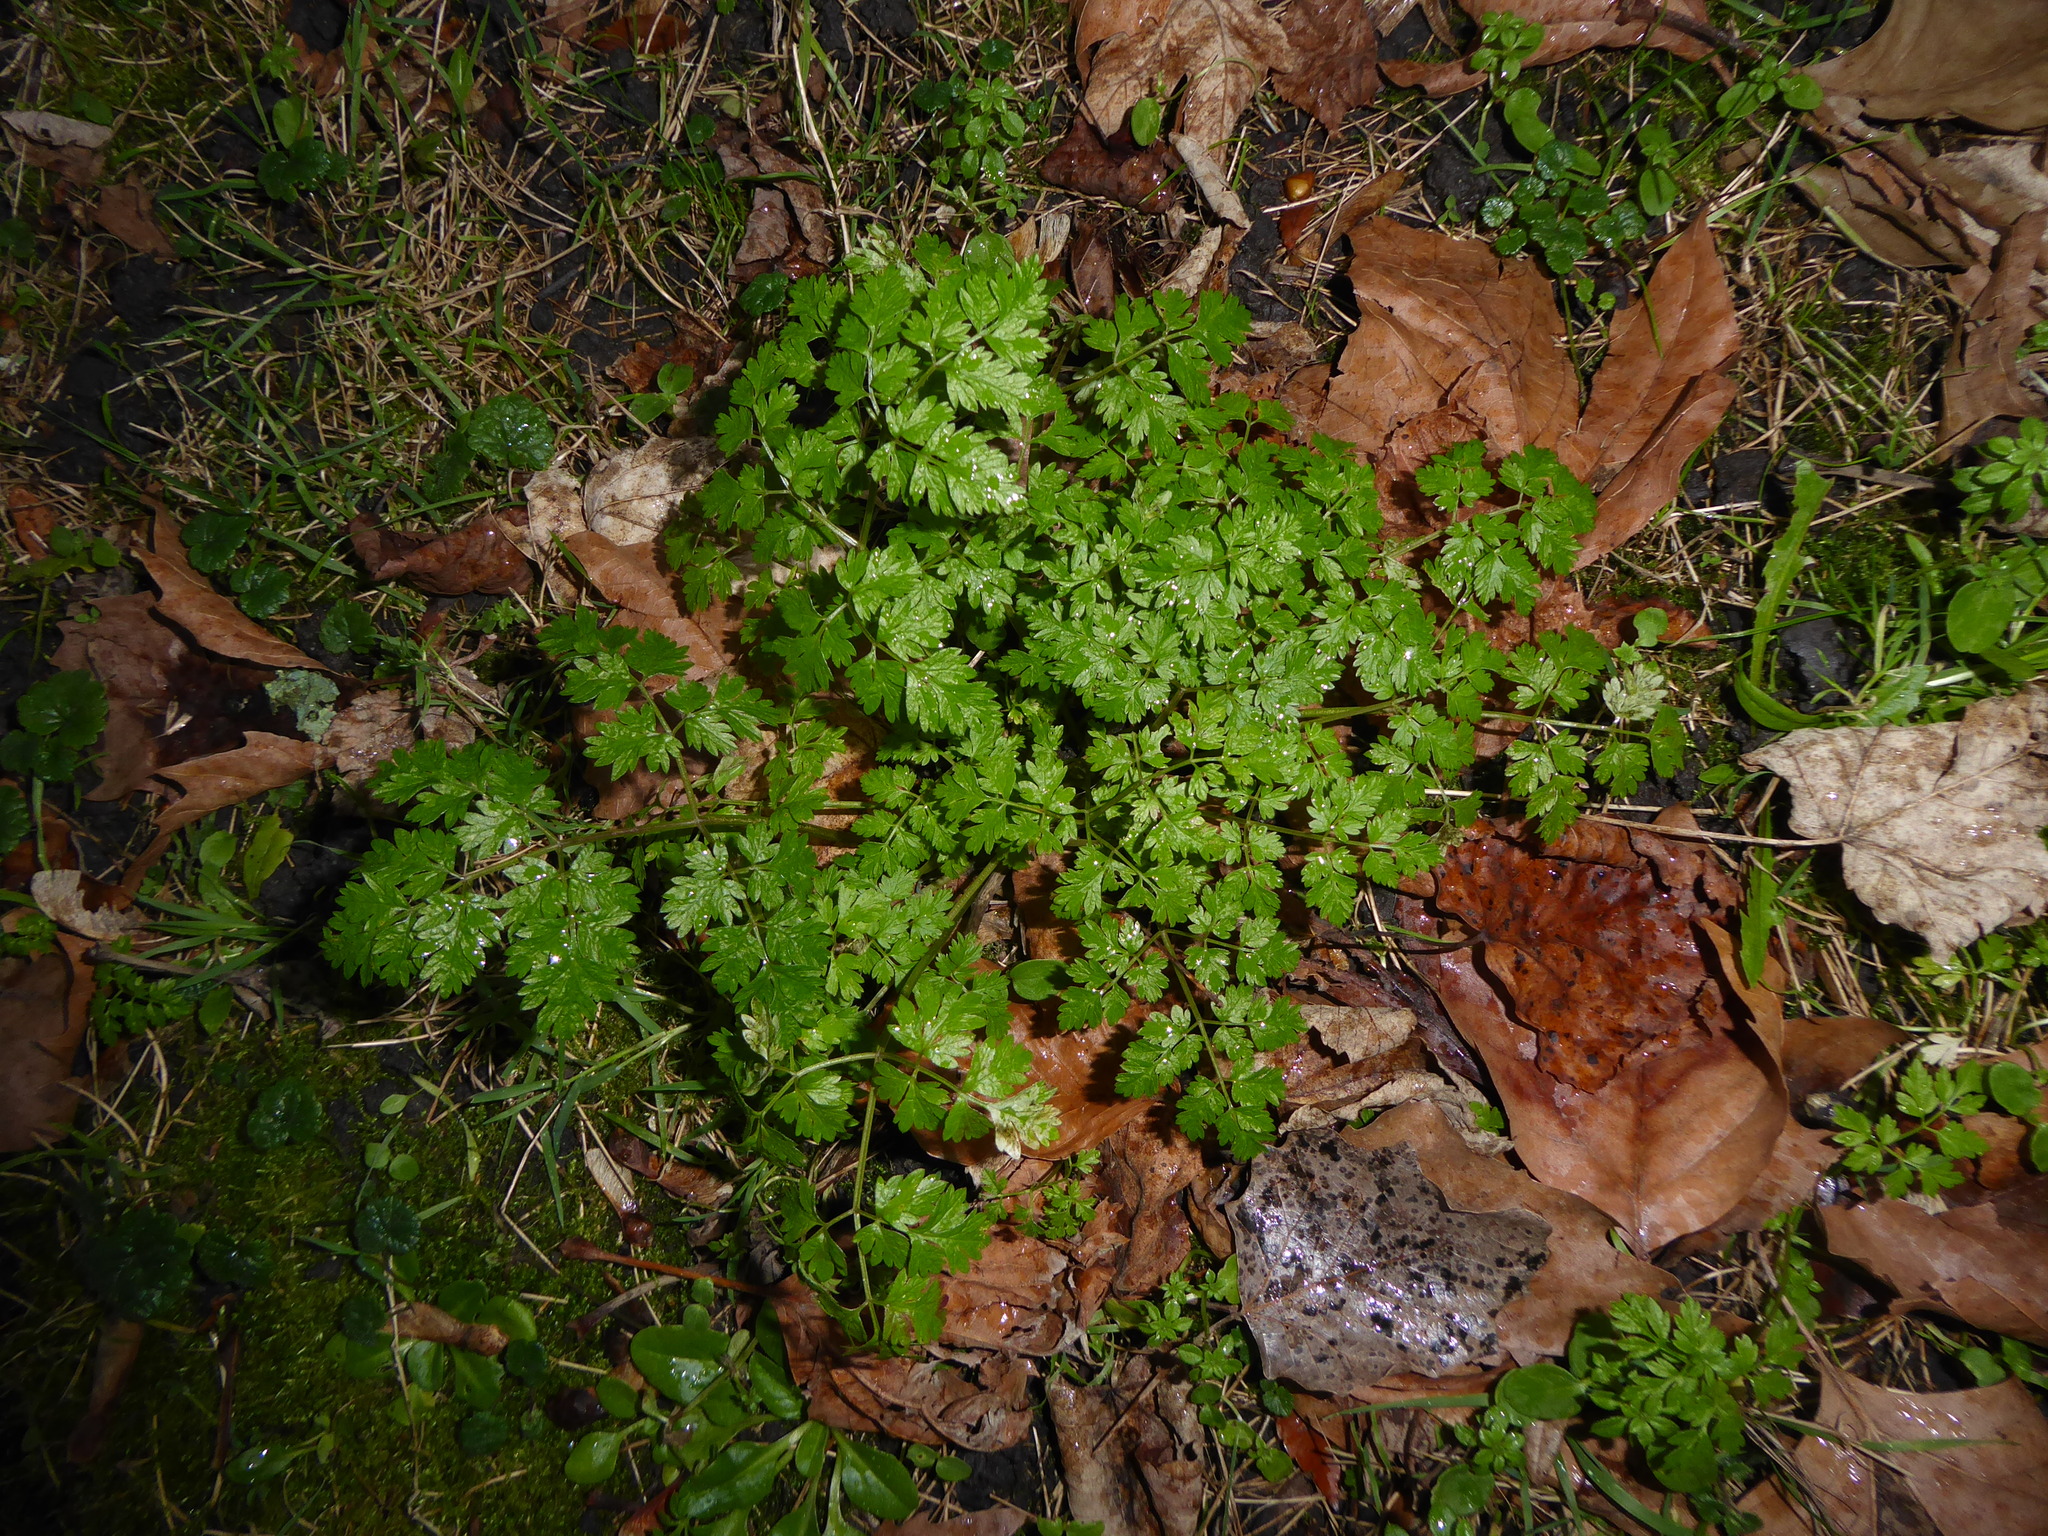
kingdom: Plantae
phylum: Tracheophyta
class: Magnoliopsida
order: Apiales
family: Apiaceae
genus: Anthriscus
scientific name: Anthriscus sylvestris
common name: Cow parsley
